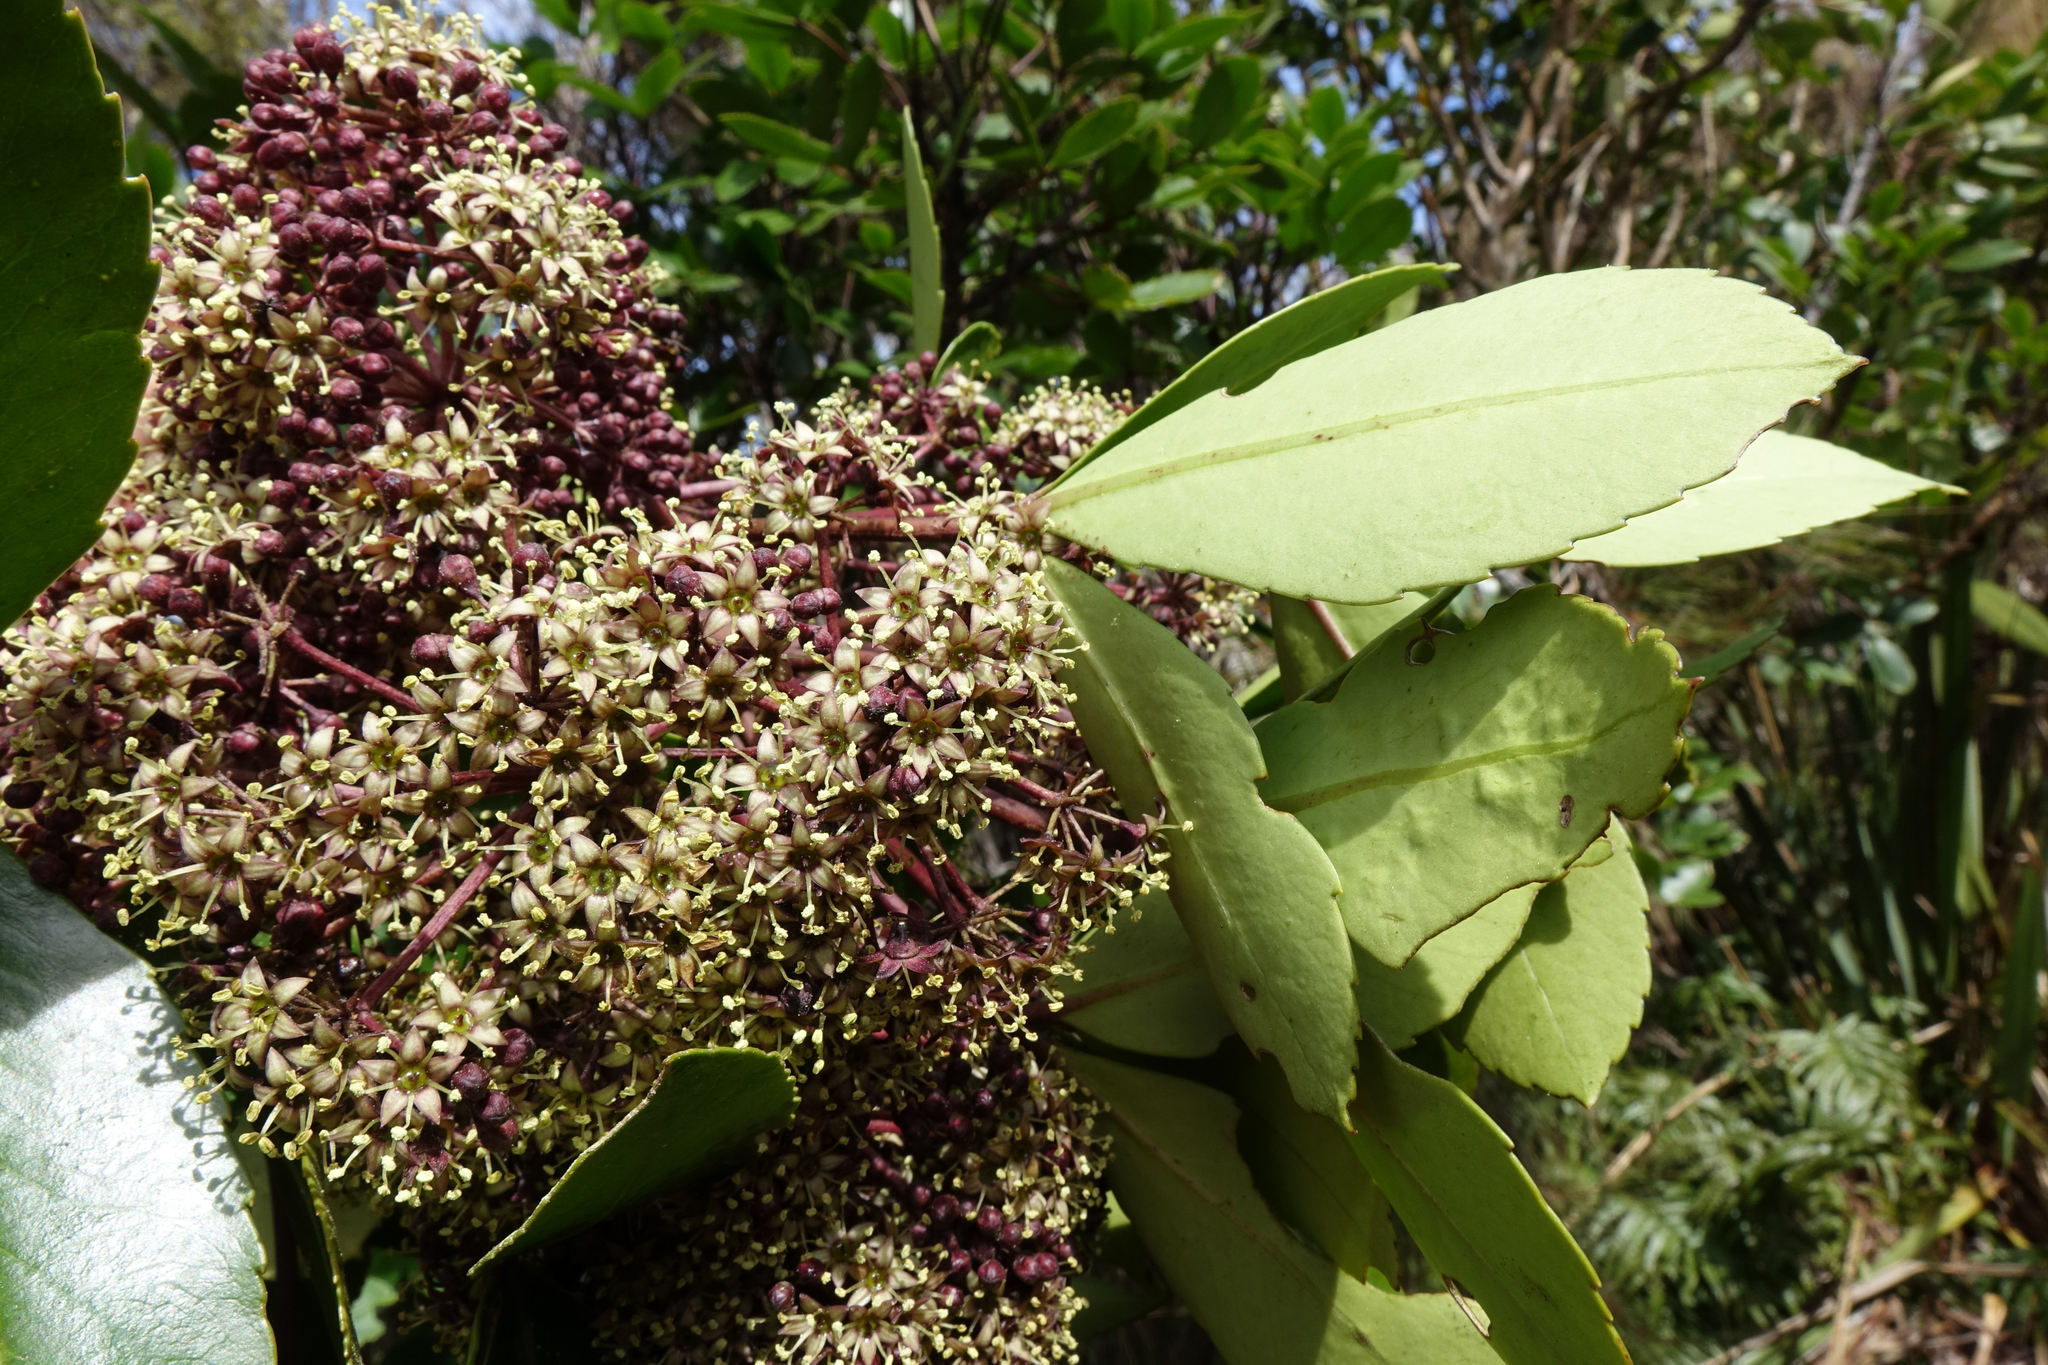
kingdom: Plantae
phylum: Tracheophyta
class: Magnoliopsida
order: Apiales
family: Araliaceae
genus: Neopanax
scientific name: Neopanax colensoi
